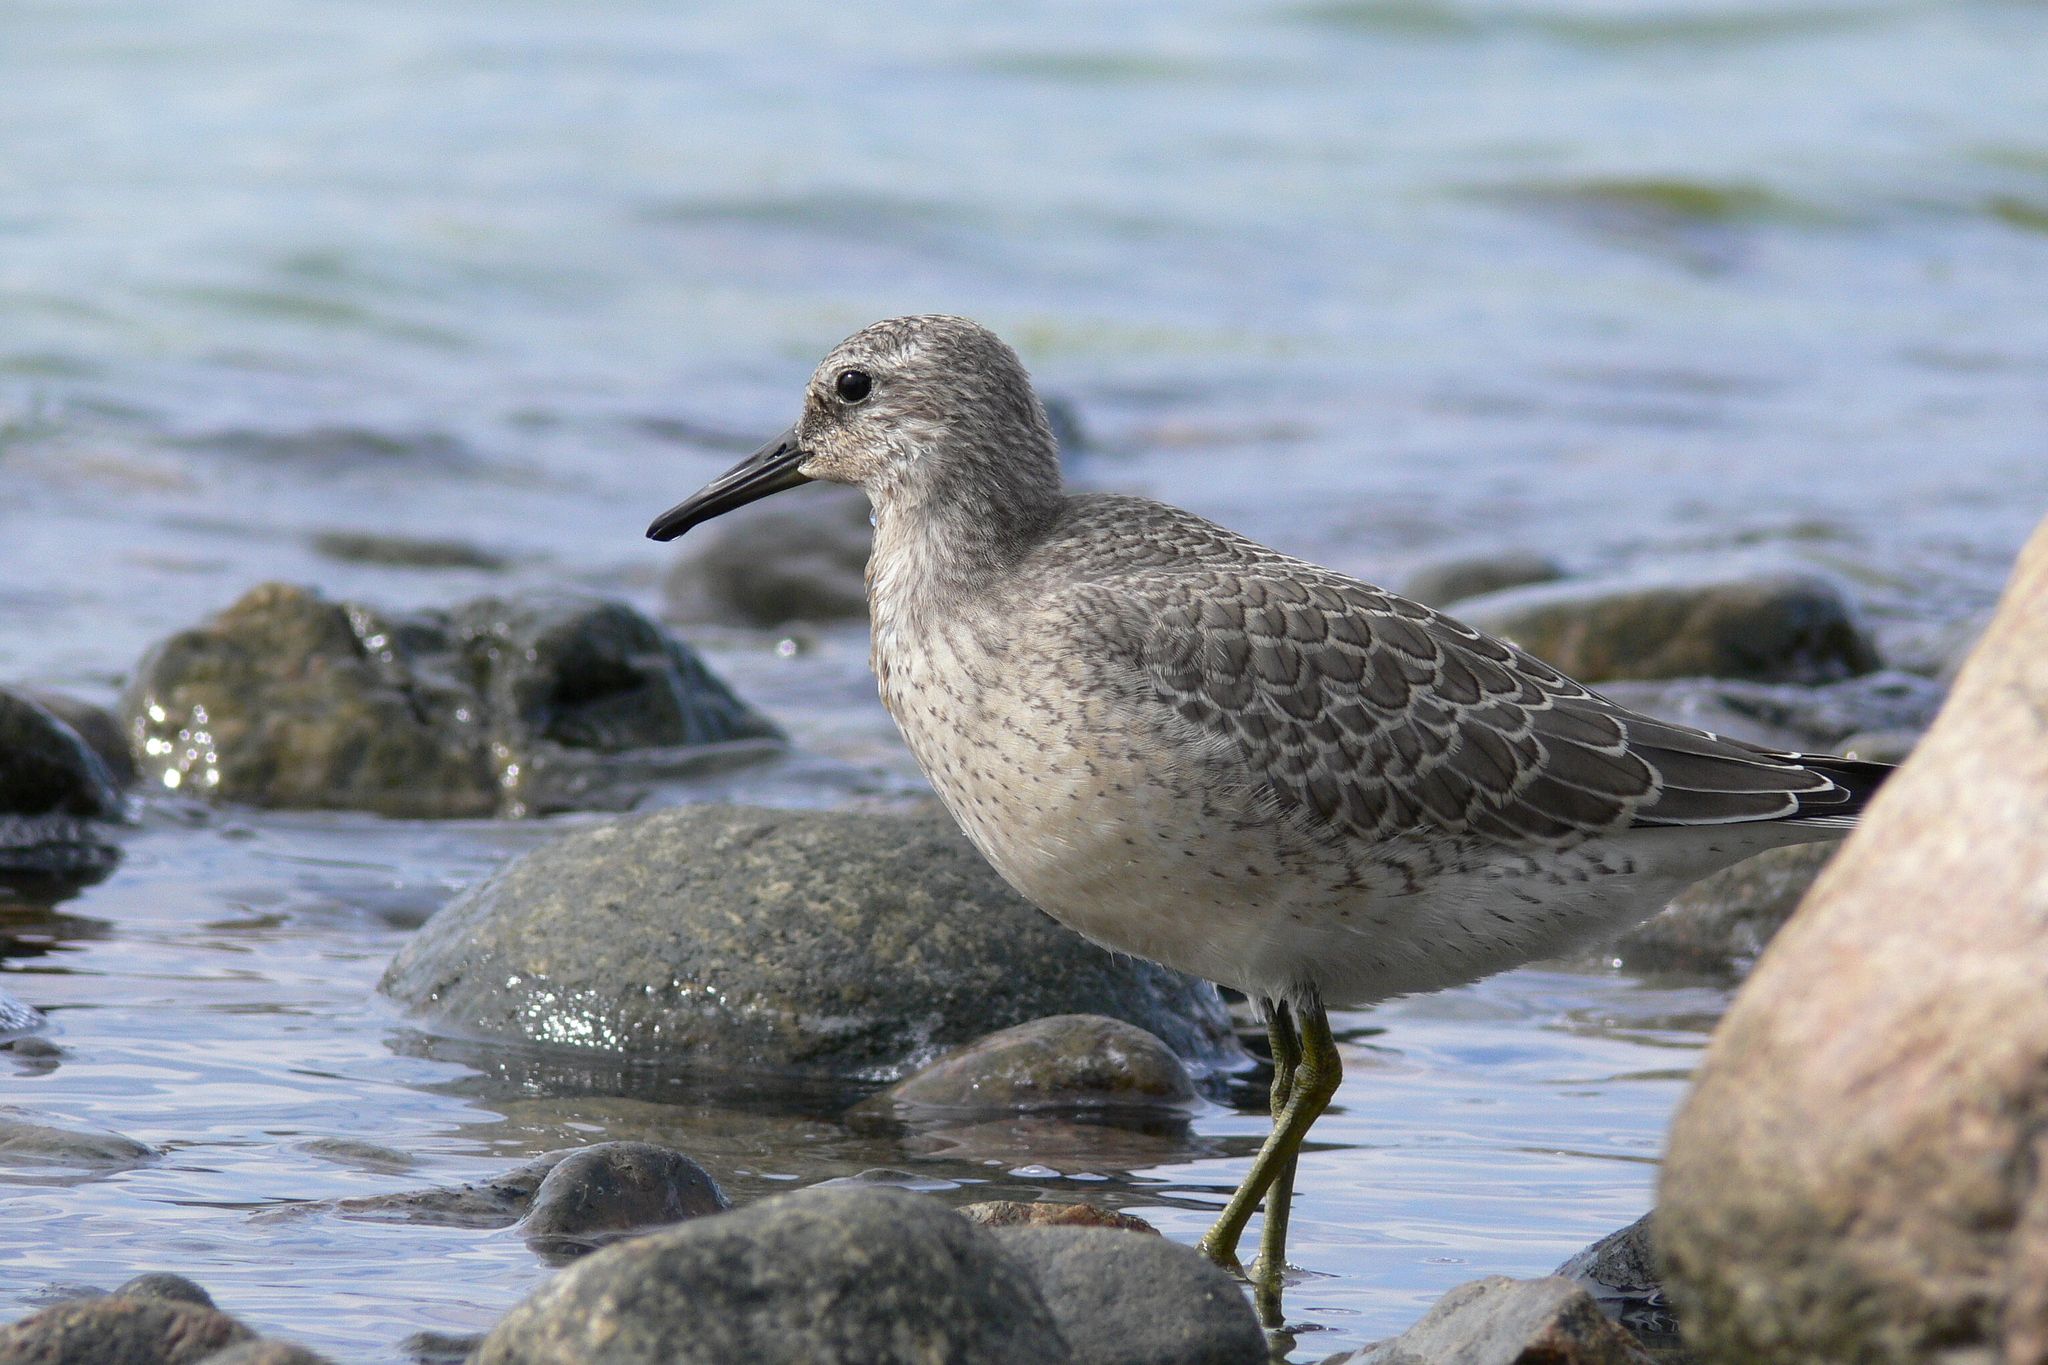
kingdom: Animalia
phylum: Chordata
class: Aves
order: Charadriiformes
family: Scolopacidae
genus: Calidris
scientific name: Calidris canutus
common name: Red knot
